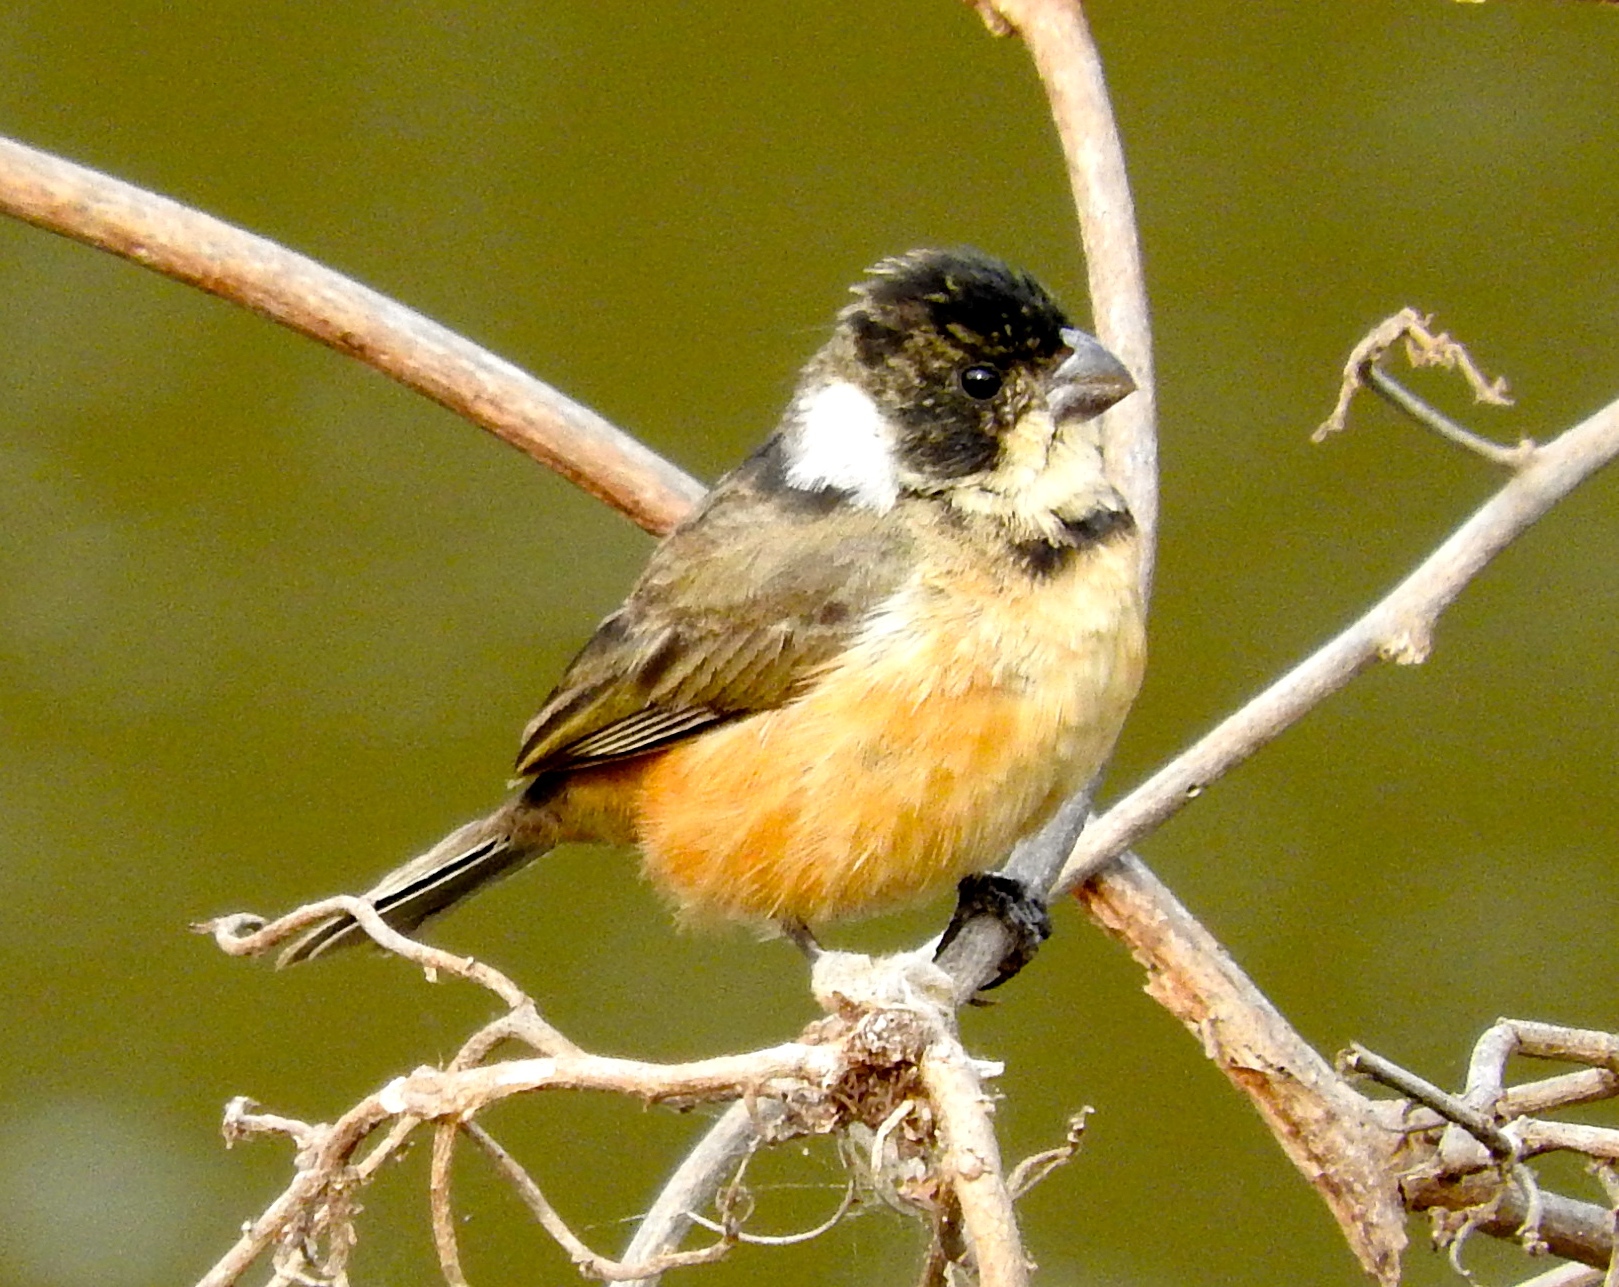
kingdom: Animalia
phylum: Chordata
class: Aves
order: Passeriformes
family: Thraupidae
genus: Sporophila
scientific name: Sporophila torqueola
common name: White-collared seedeater
